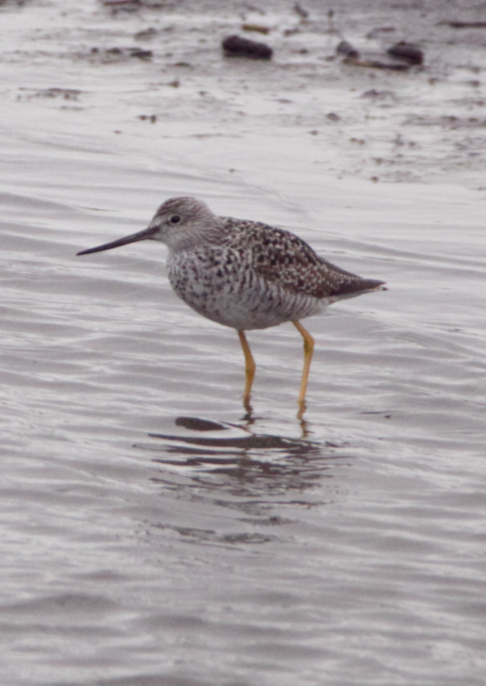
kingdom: Animalia
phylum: Chordata
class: Aves
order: Charadriiformes
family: Scolopacidae
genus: Tringa
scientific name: Tringa melanoleuca
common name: Greater yellowlegs
